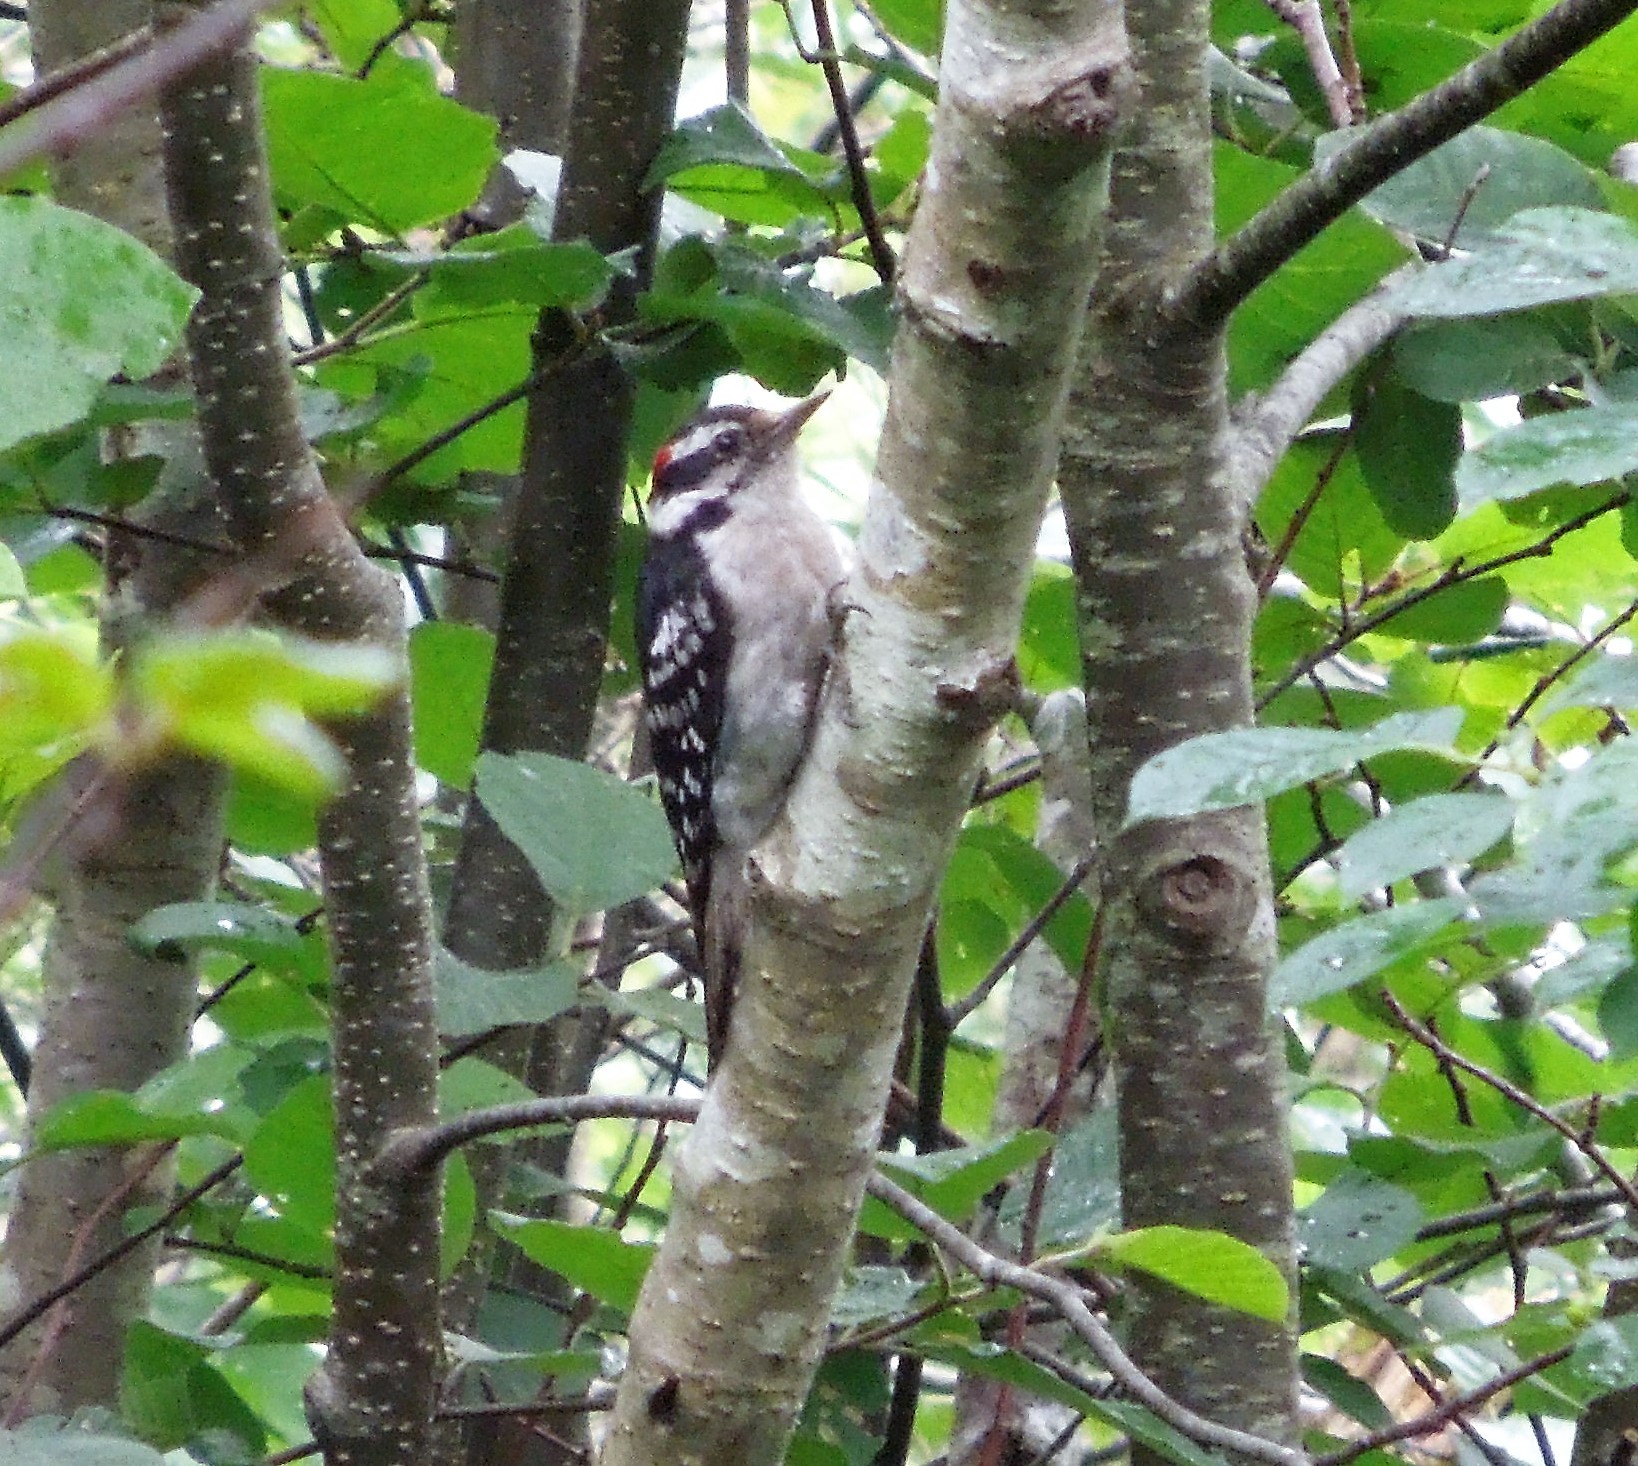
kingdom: Animalia
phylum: Chordata
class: Aves
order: Piciformes
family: Picidae
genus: Dryobates
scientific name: Dryobates pubescens
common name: Downy woodpecker
